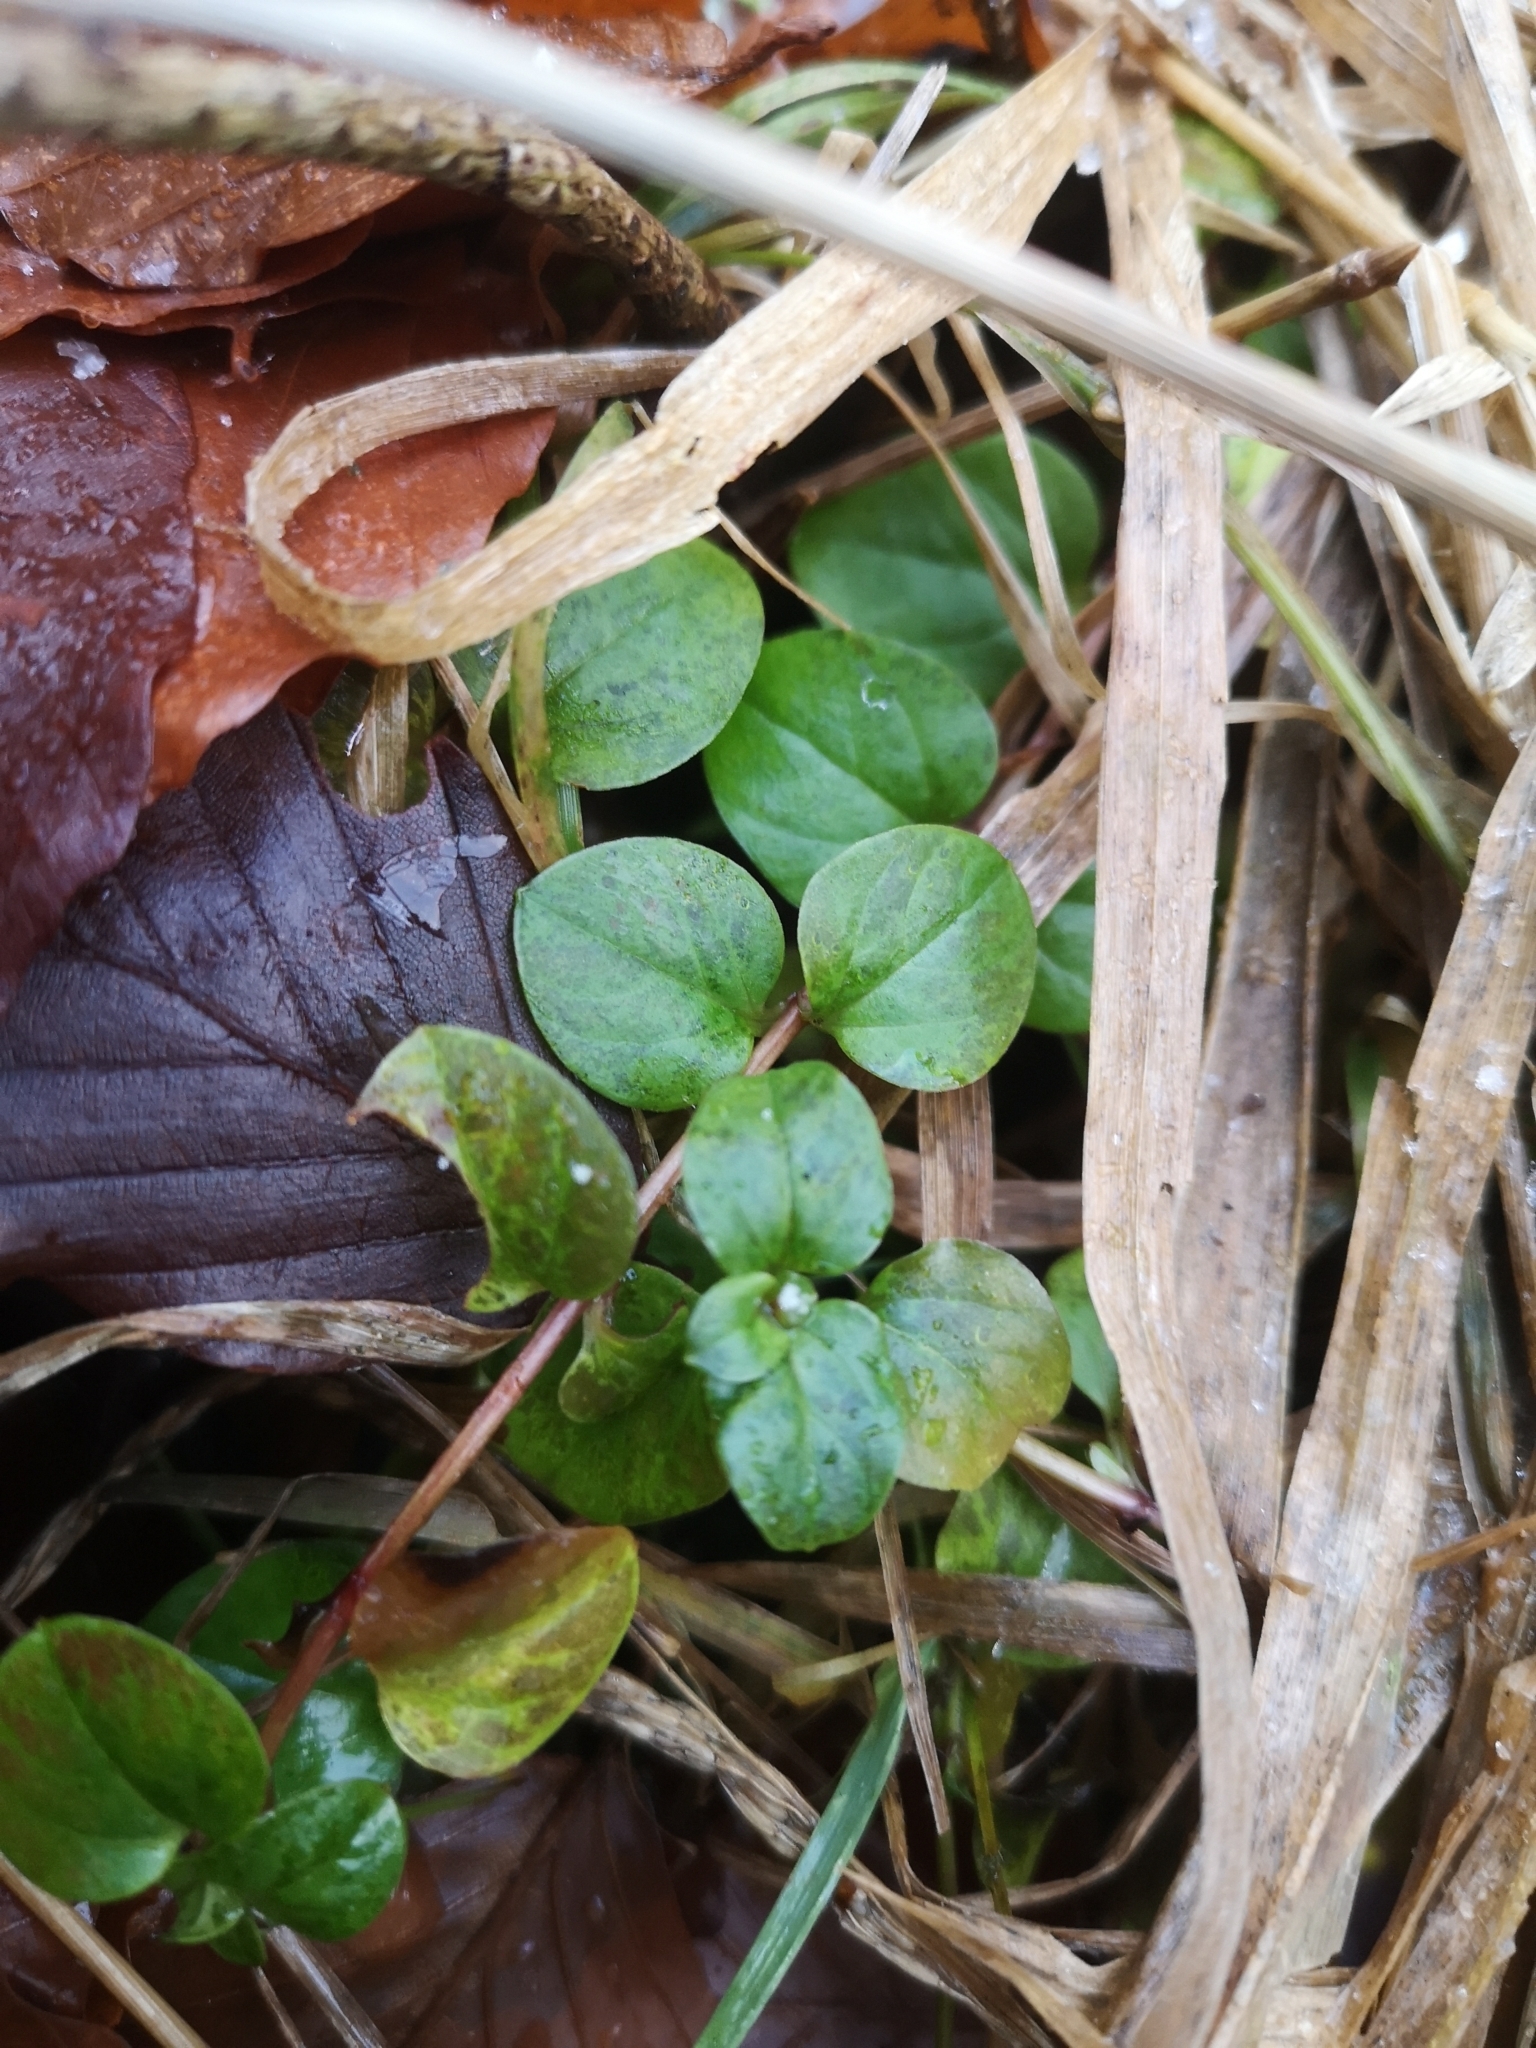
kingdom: Plantae
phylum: Tracheophyta
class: Magnoliopsida
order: Ericales
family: Primulaceae
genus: Lysimachia
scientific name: Lysimachia nummularia
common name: Moneywort
